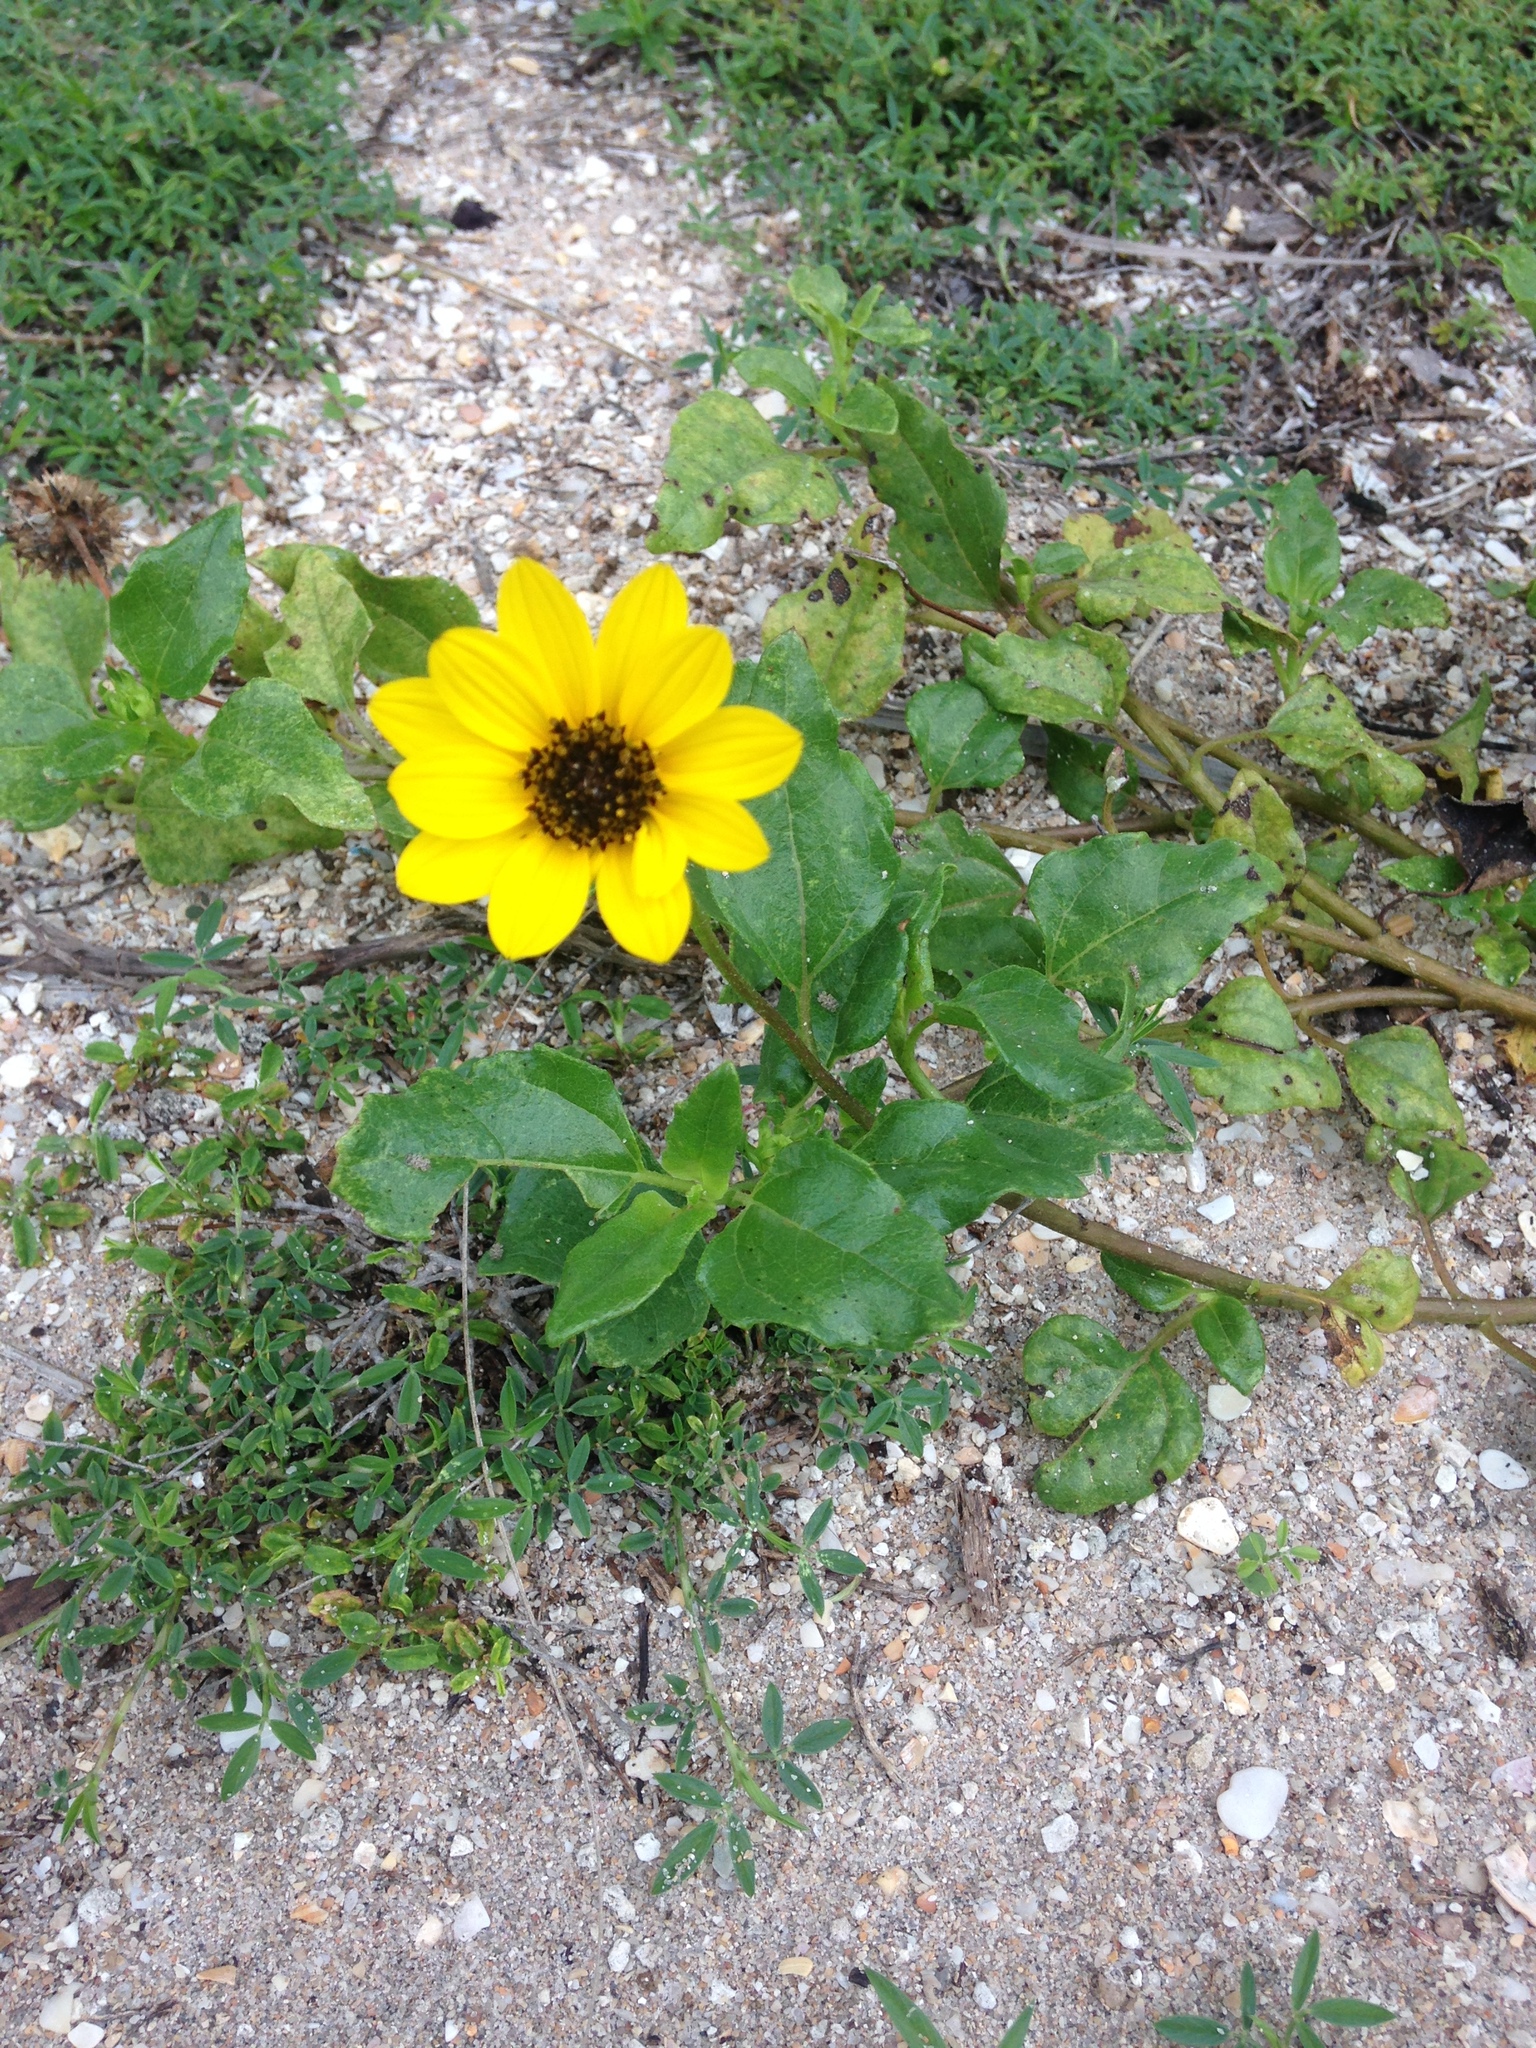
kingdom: Plantae
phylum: Tracheophyta
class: Magnoliopsida
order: Asterales
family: Asteraceae
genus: Helianthus
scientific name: Helianthus debilis
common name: Weak sunflower
